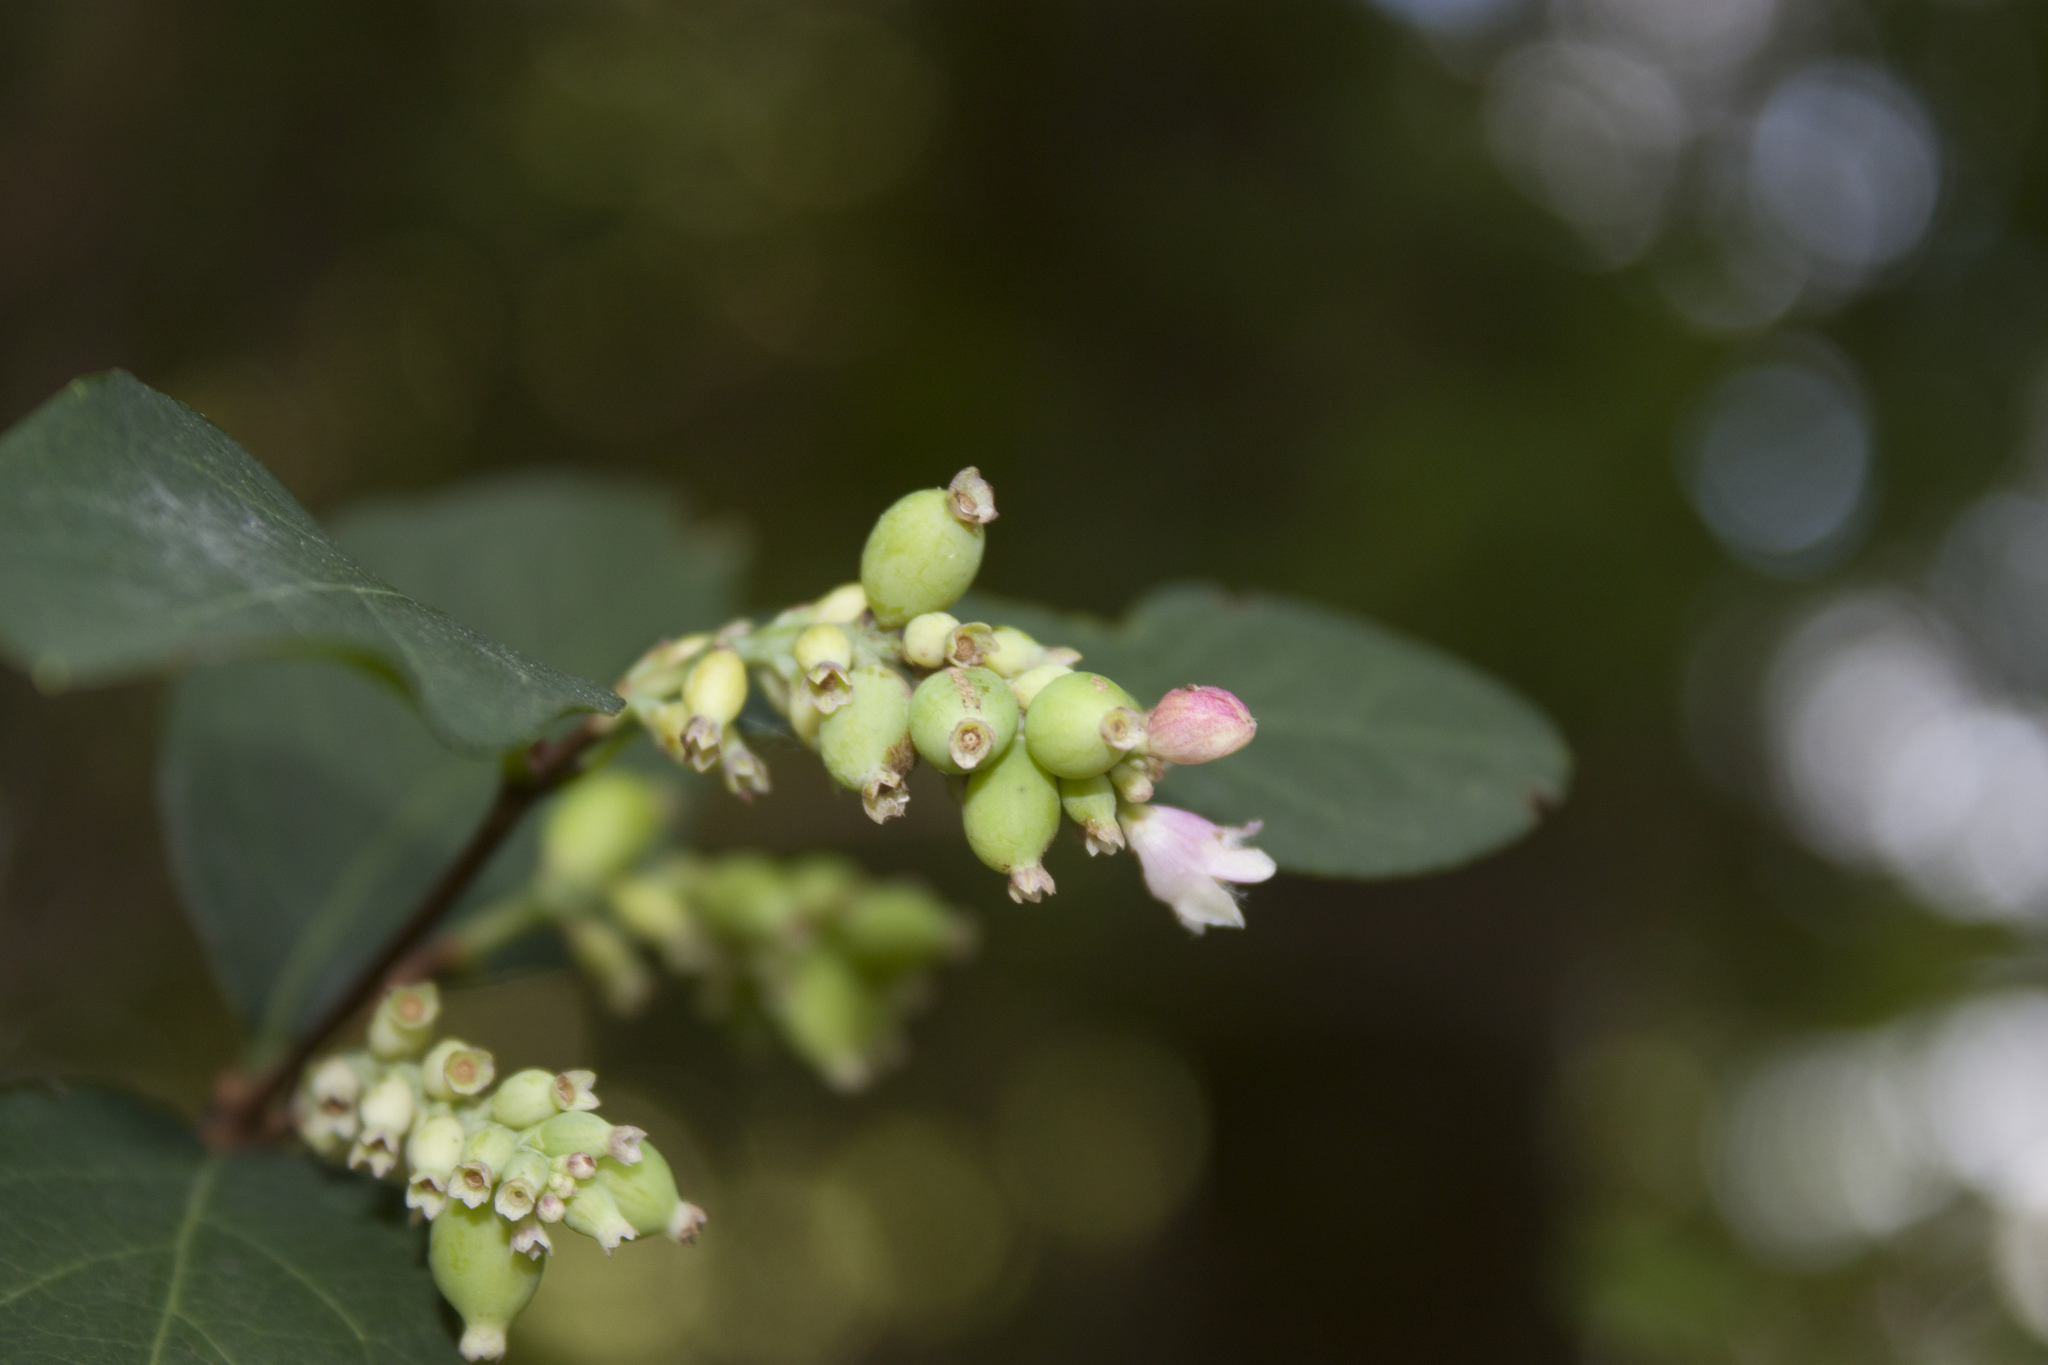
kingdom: Plantae
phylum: Tracheophyta
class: Magnoliopsida
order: Dipsacales
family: Caprifoliaceae
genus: Symphoricarpos
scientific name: Symphoricarpos albus
